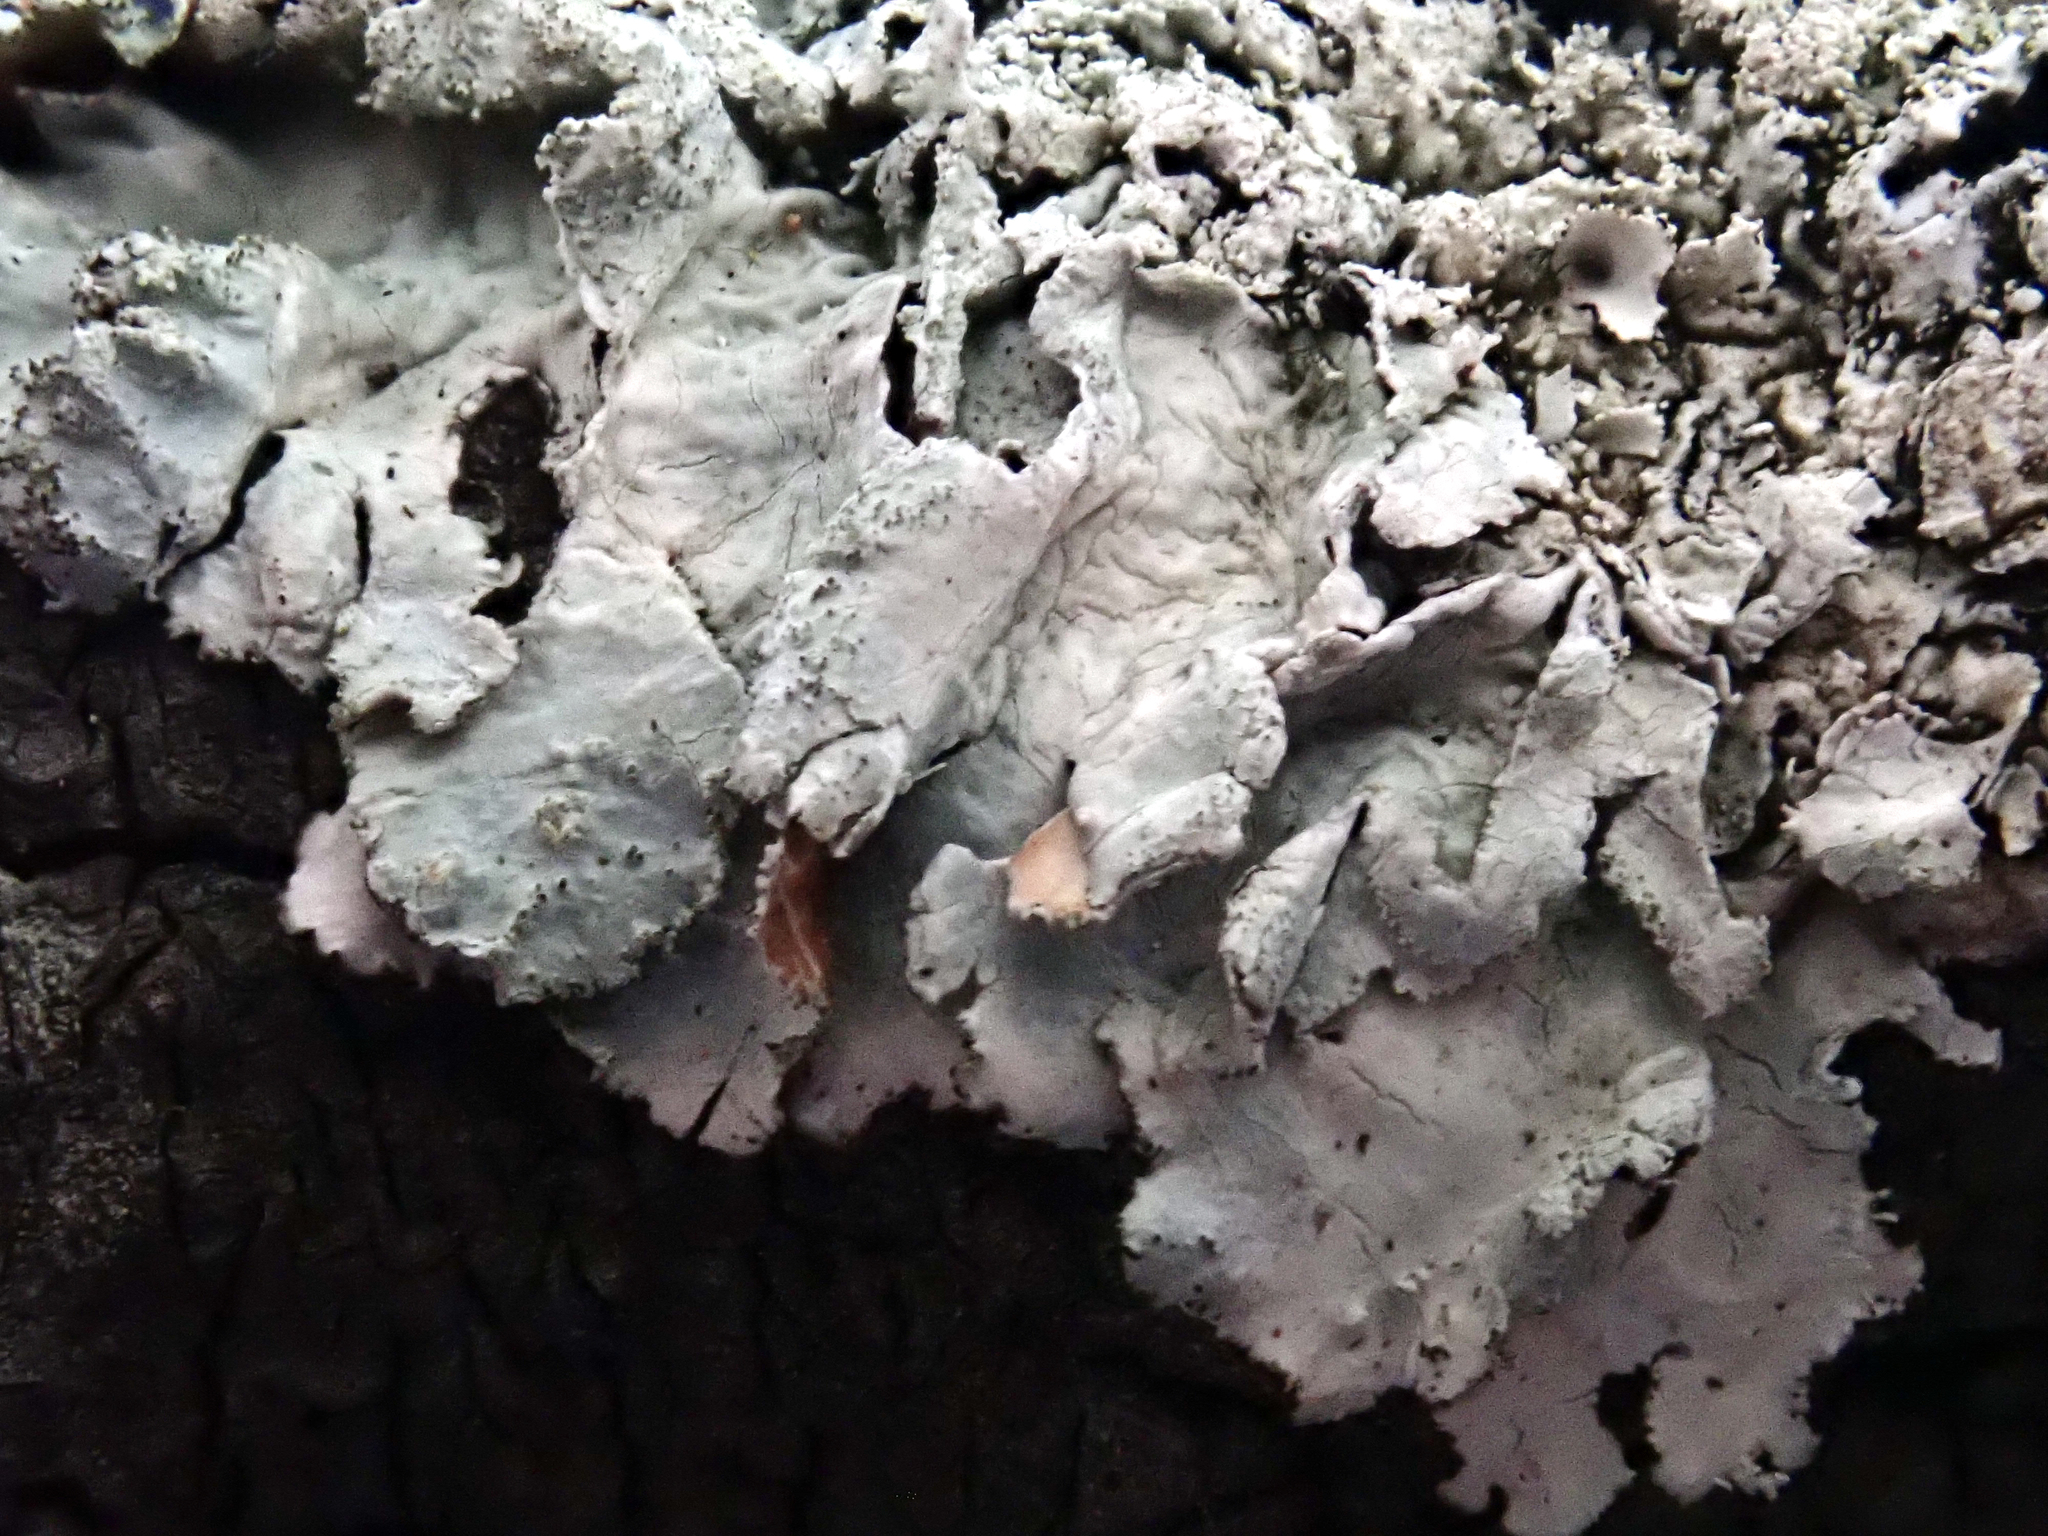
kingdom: Fungi
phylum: Ascomycota
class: Lecanoromycetes
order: Lecanorales
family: Parmeliaceae
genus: Parmotrema
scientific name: Parmotrema crinitum
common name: Salted ruffle lichen
